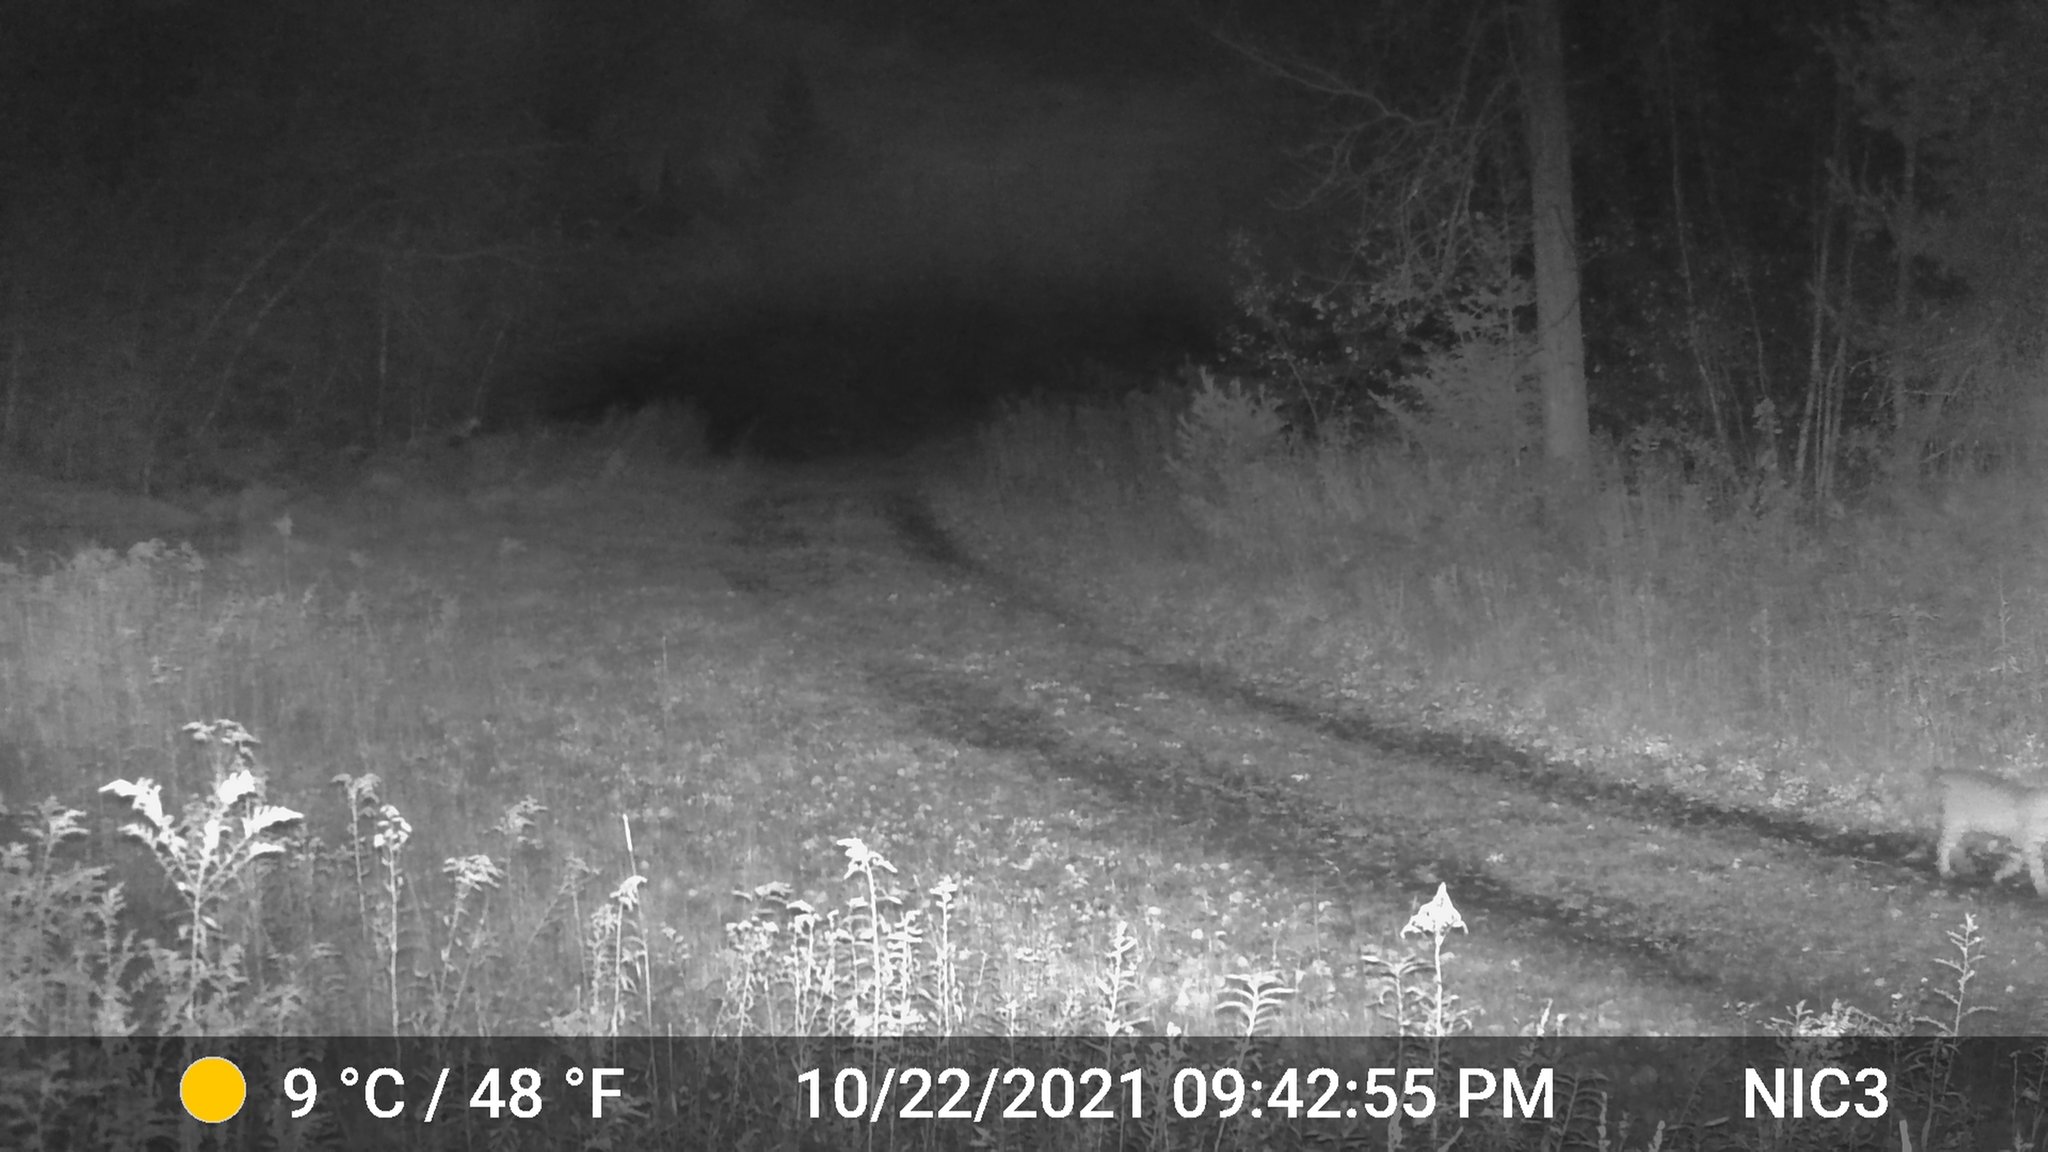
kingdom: Animalia
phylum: Chordata
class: Mammalia
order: Carnivora
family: Felidae
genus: Lynx
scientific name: Lynx rufus
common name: Bobcat
